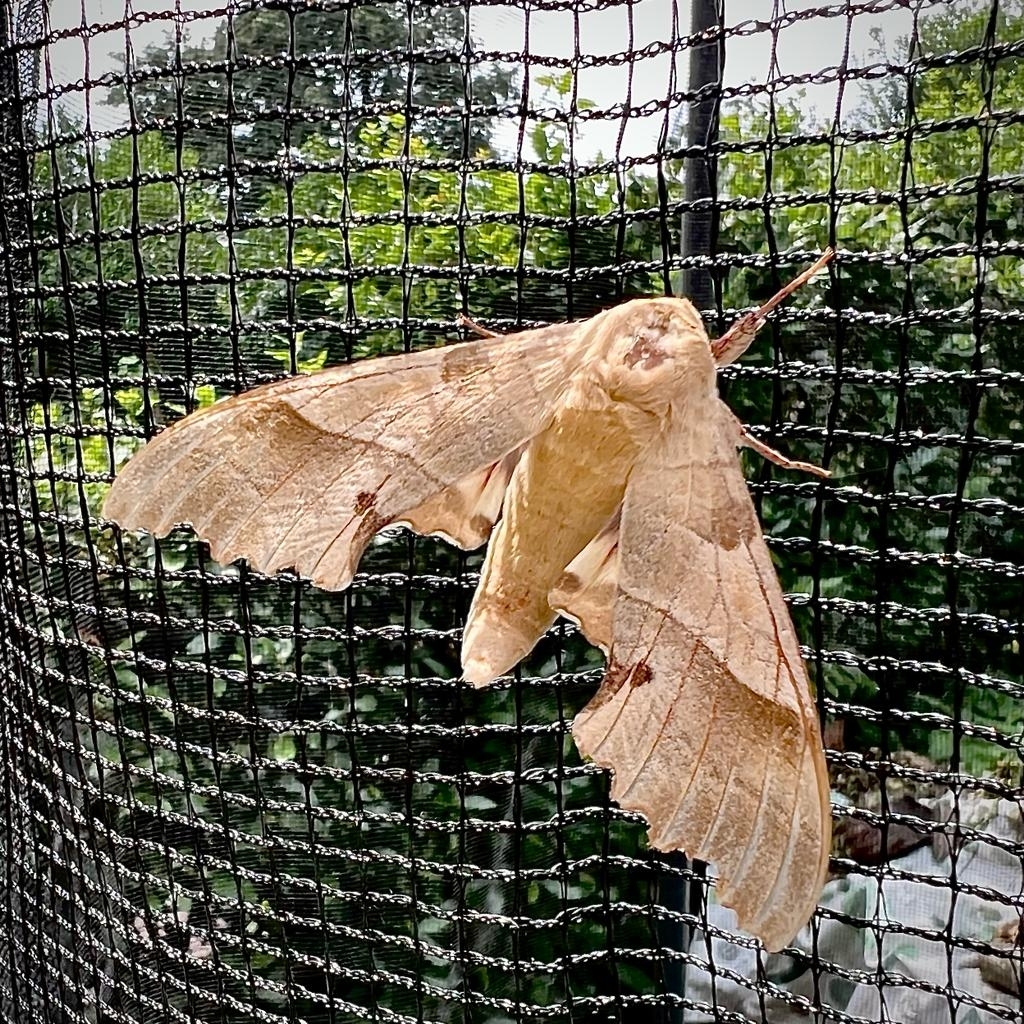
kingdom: Animalia
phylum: Arthropoda
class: Insecta
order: Lepidoptera
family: Sphingidae
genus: Marumba
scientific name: Marumba quercus
